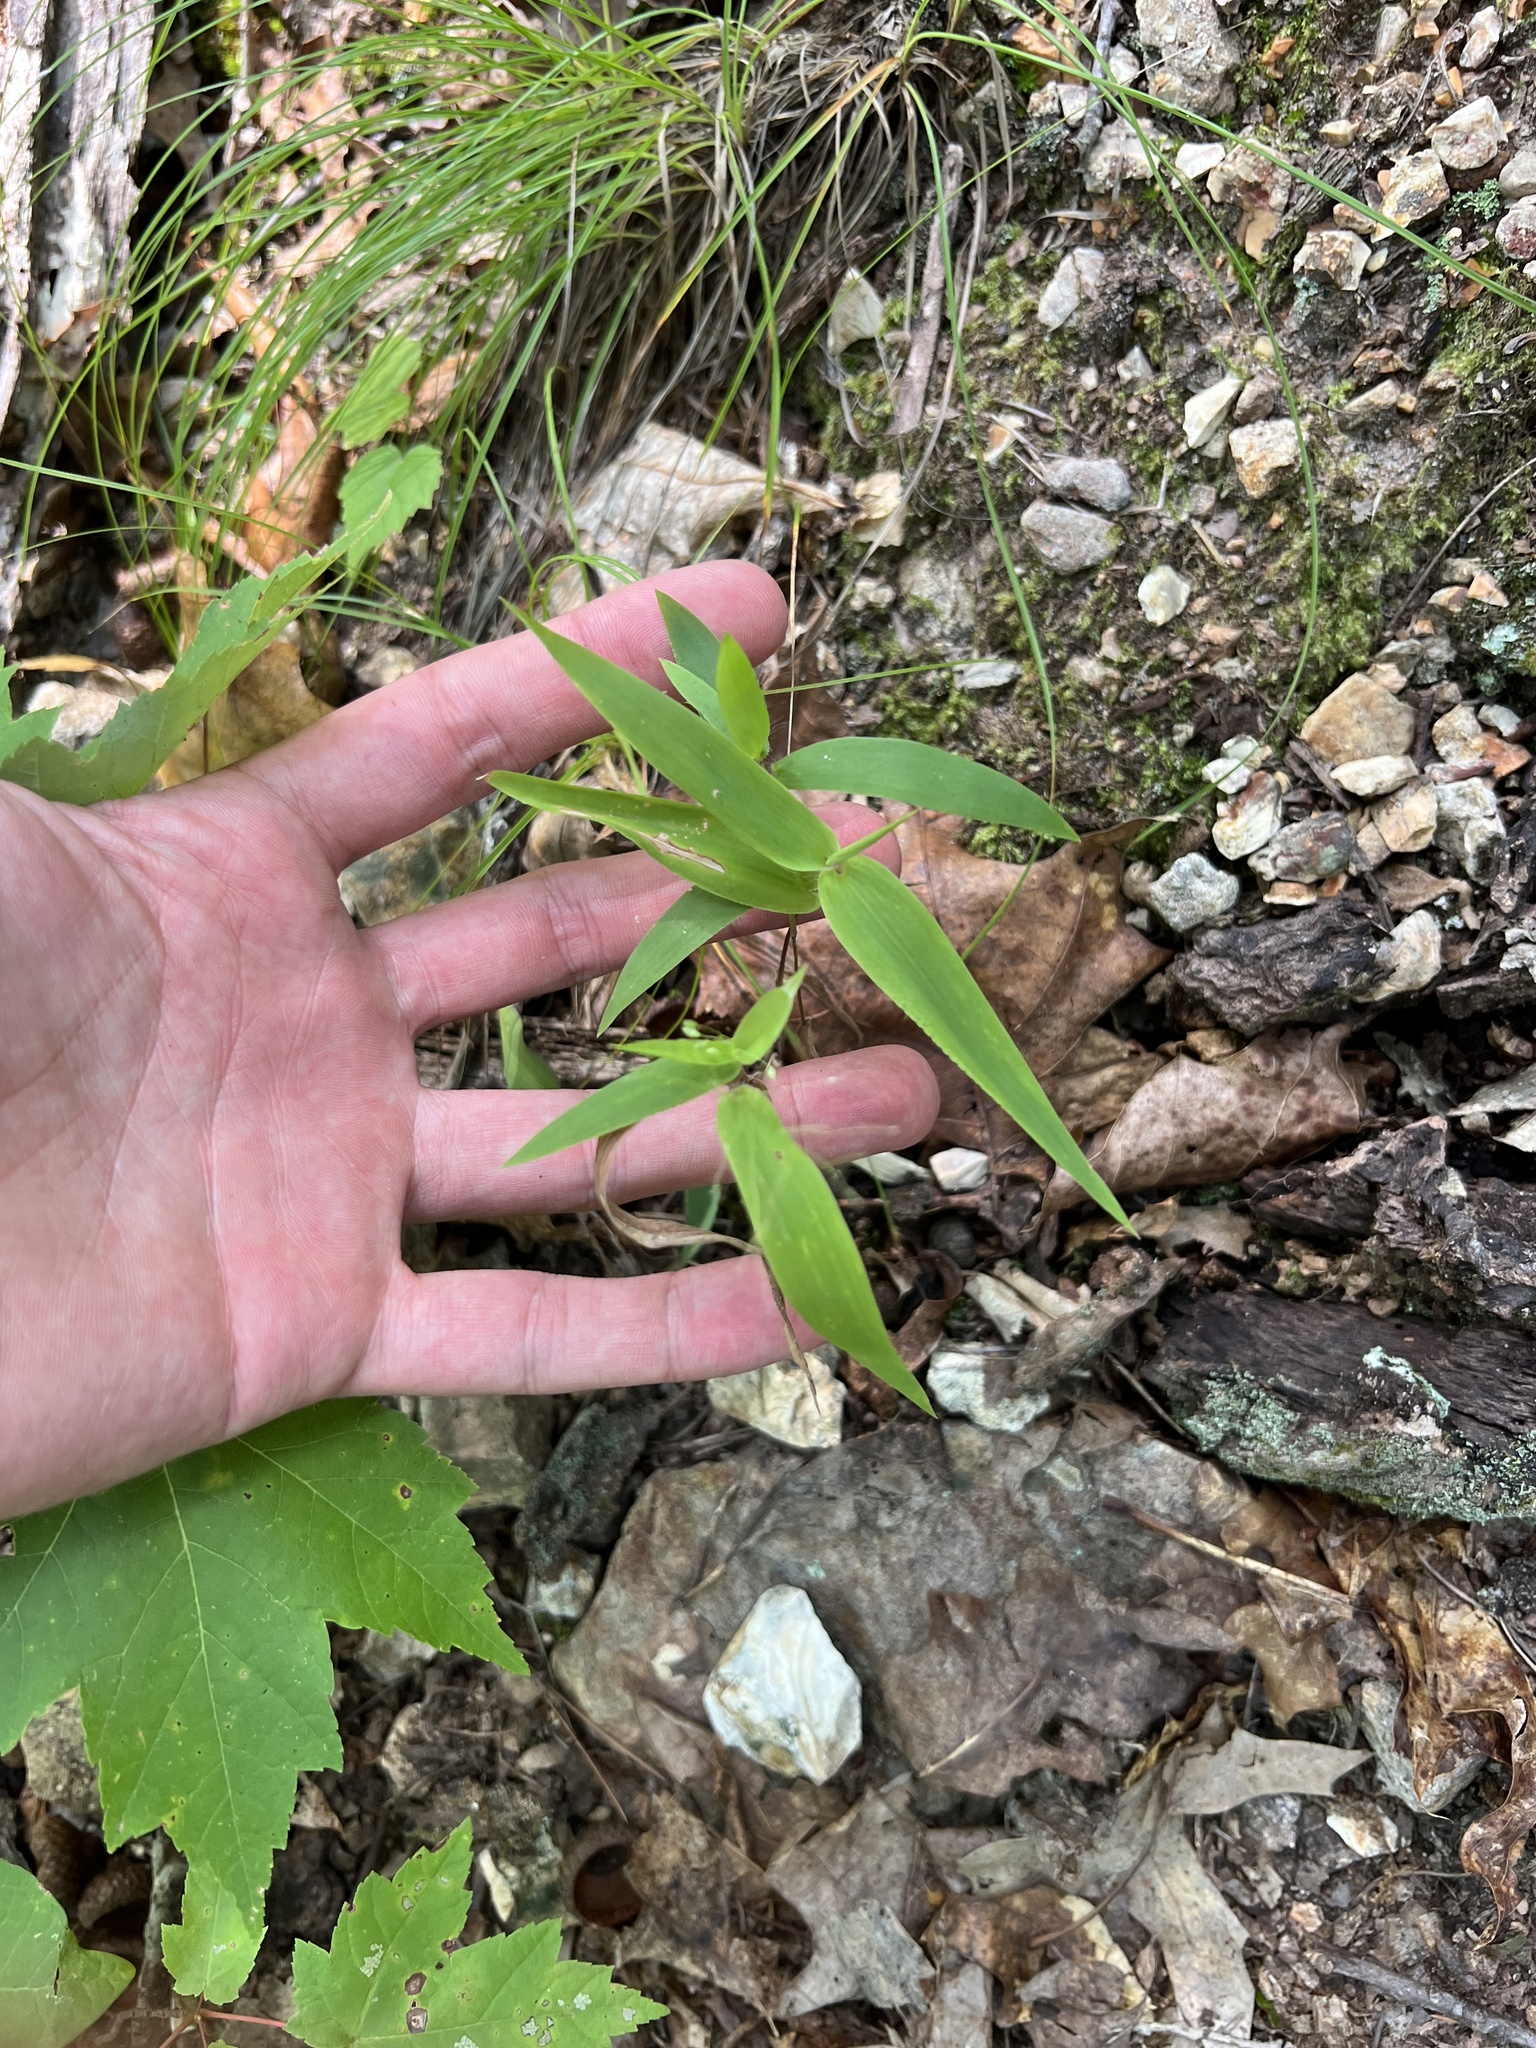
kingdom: Plantae
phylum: Tracheophyta
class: Liliopsida
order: Poales
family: Poaceae
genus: Dichanthelium
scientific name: Dichanthelium commutatum
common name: Variable witchgrass
